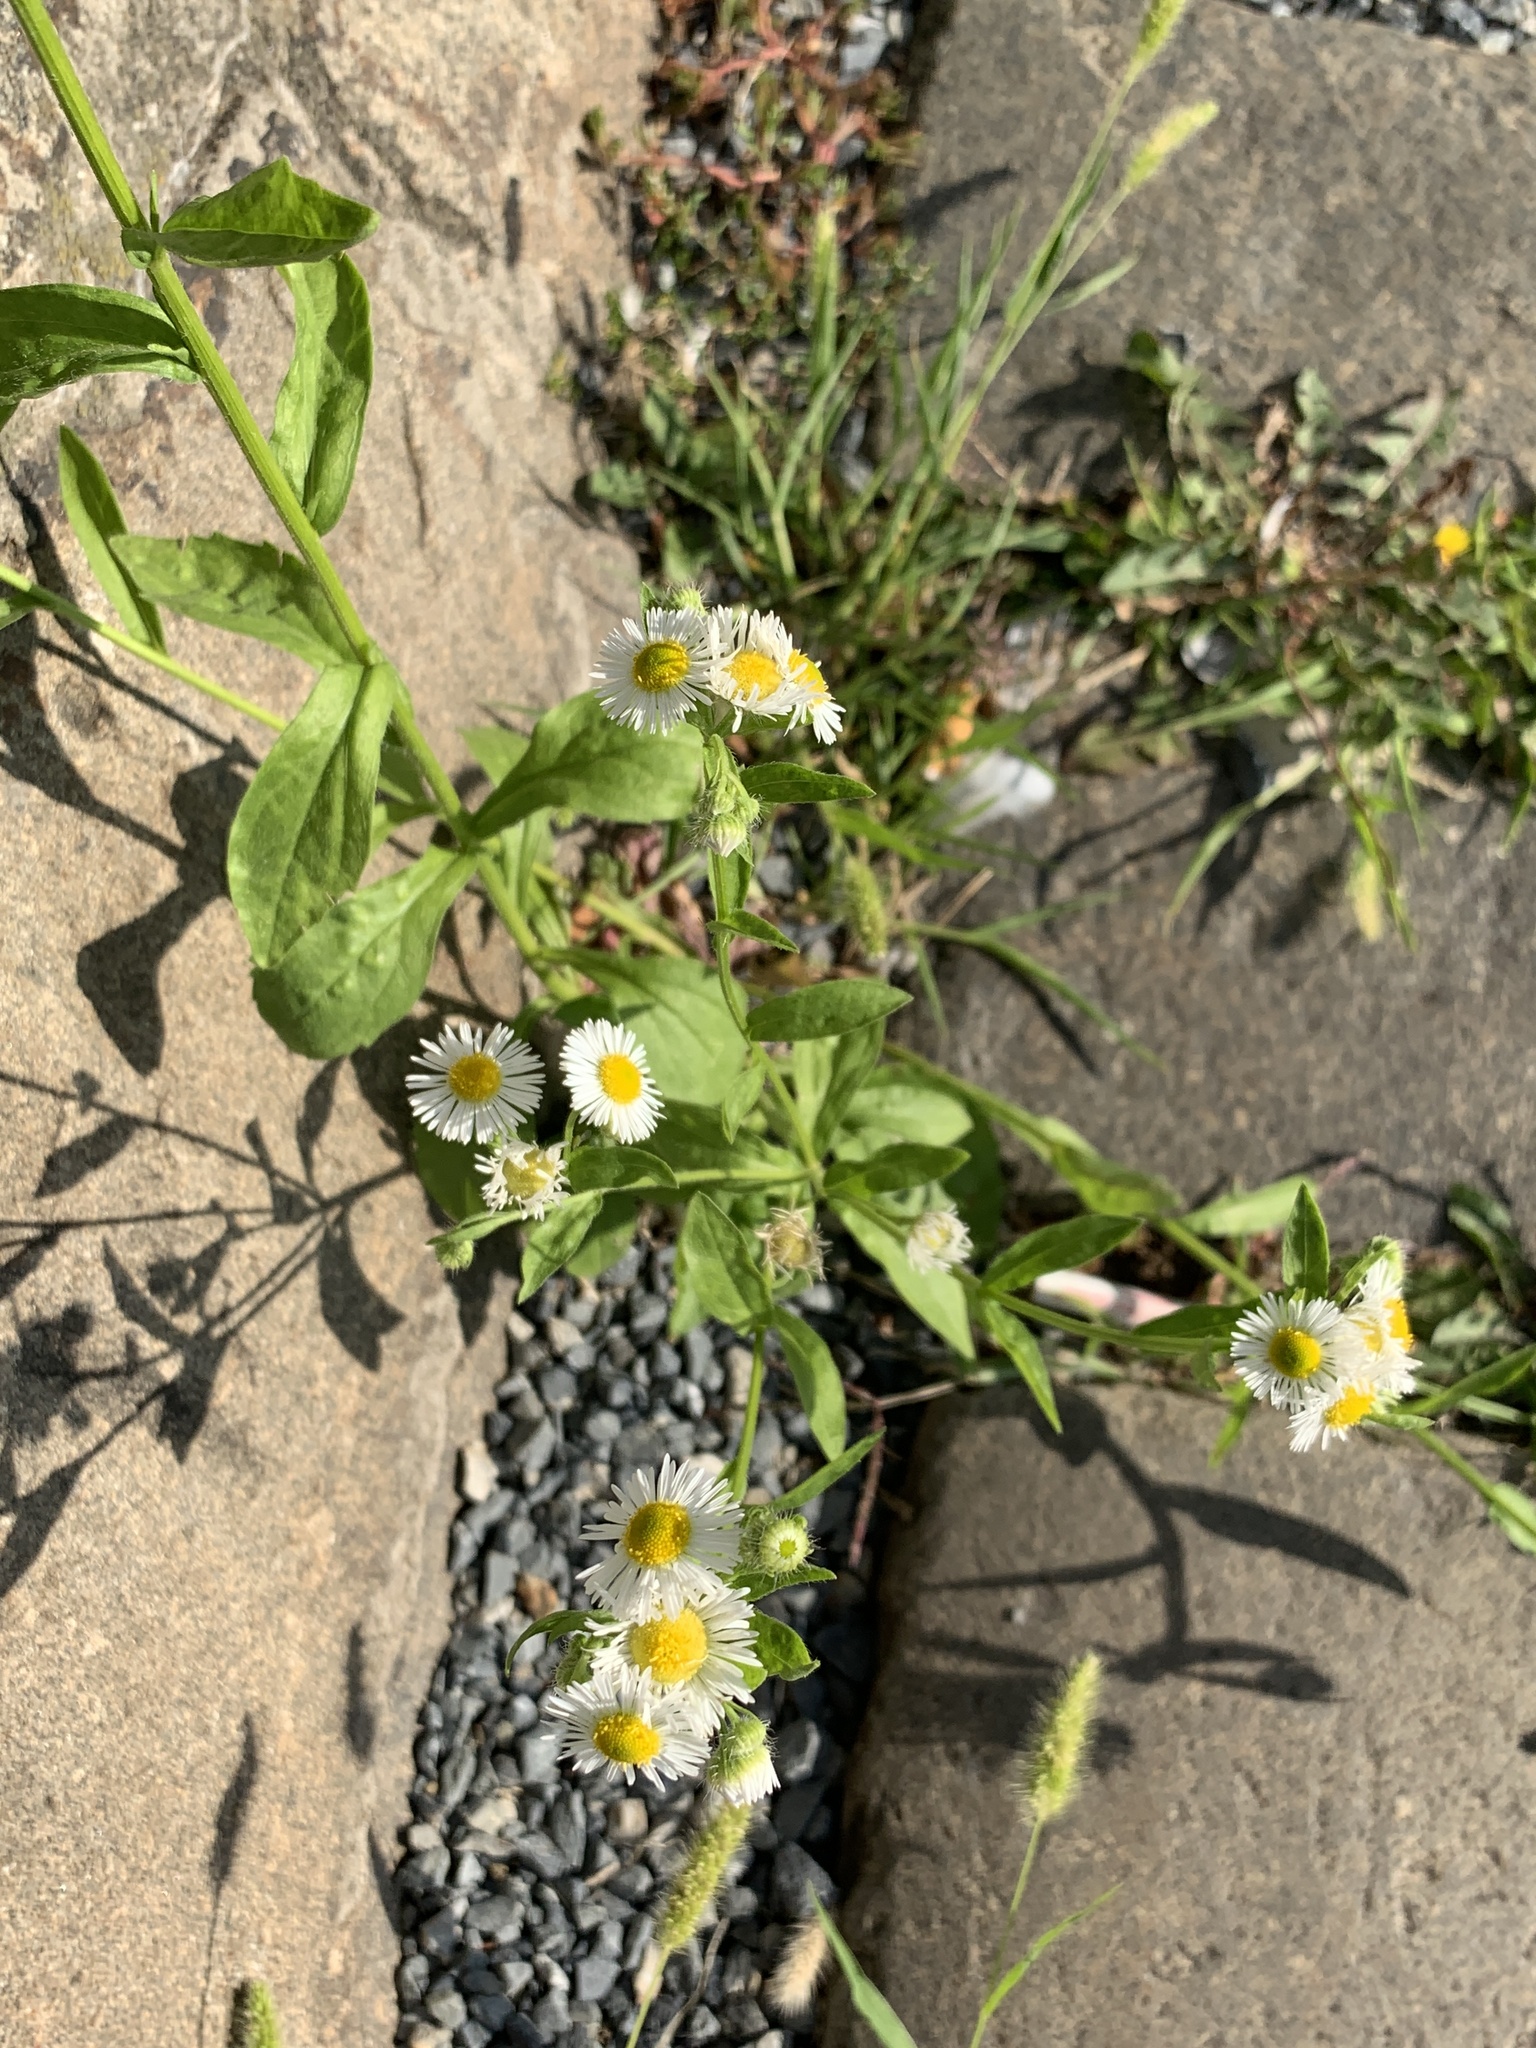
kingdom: Plantae
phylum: Tracheophyta
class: Magnoliopsida
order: Asterales
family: Asteraceae
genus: Erigeron
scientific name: Erigeron annuus
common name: Tall fleabane
